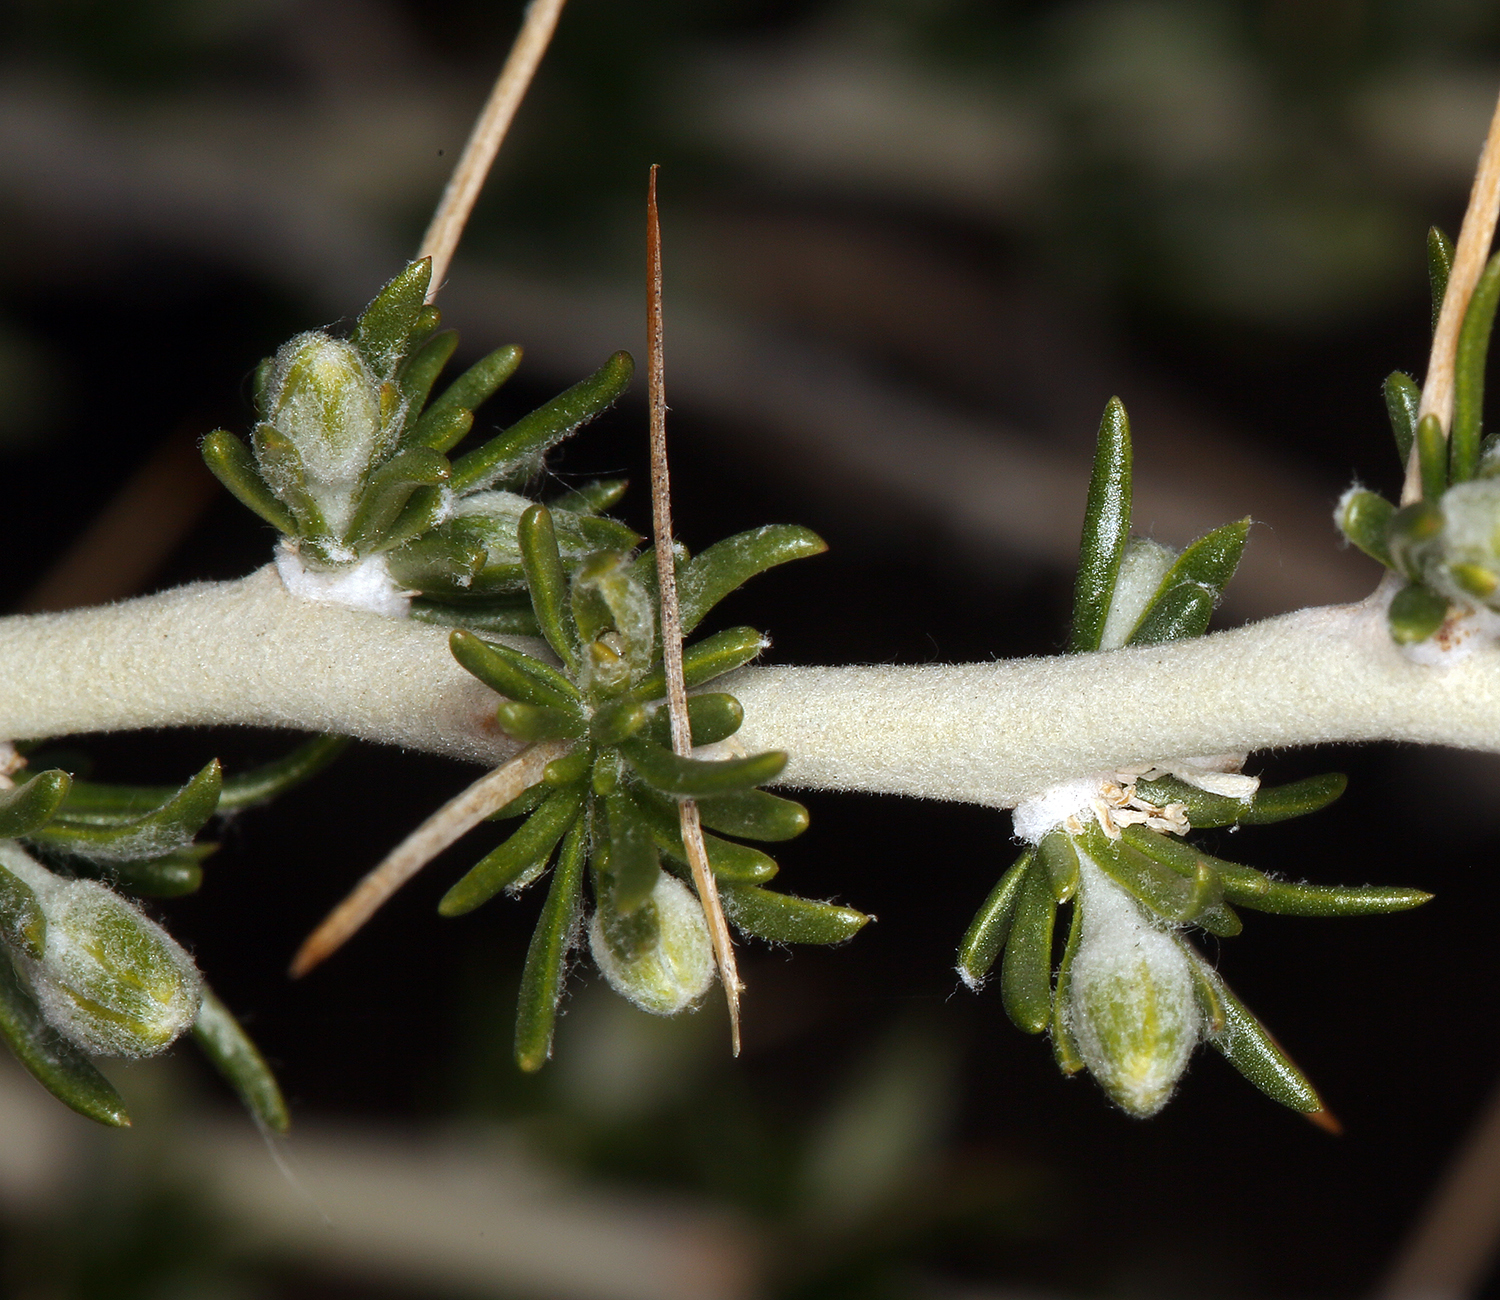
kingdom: Plantae
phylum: Tracheophyta
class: Magnoliopsida
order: Asterales
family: Asteraceae
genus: Tetradymia
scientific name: Tetradymia axillaris
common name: Long-spine horsebrush
